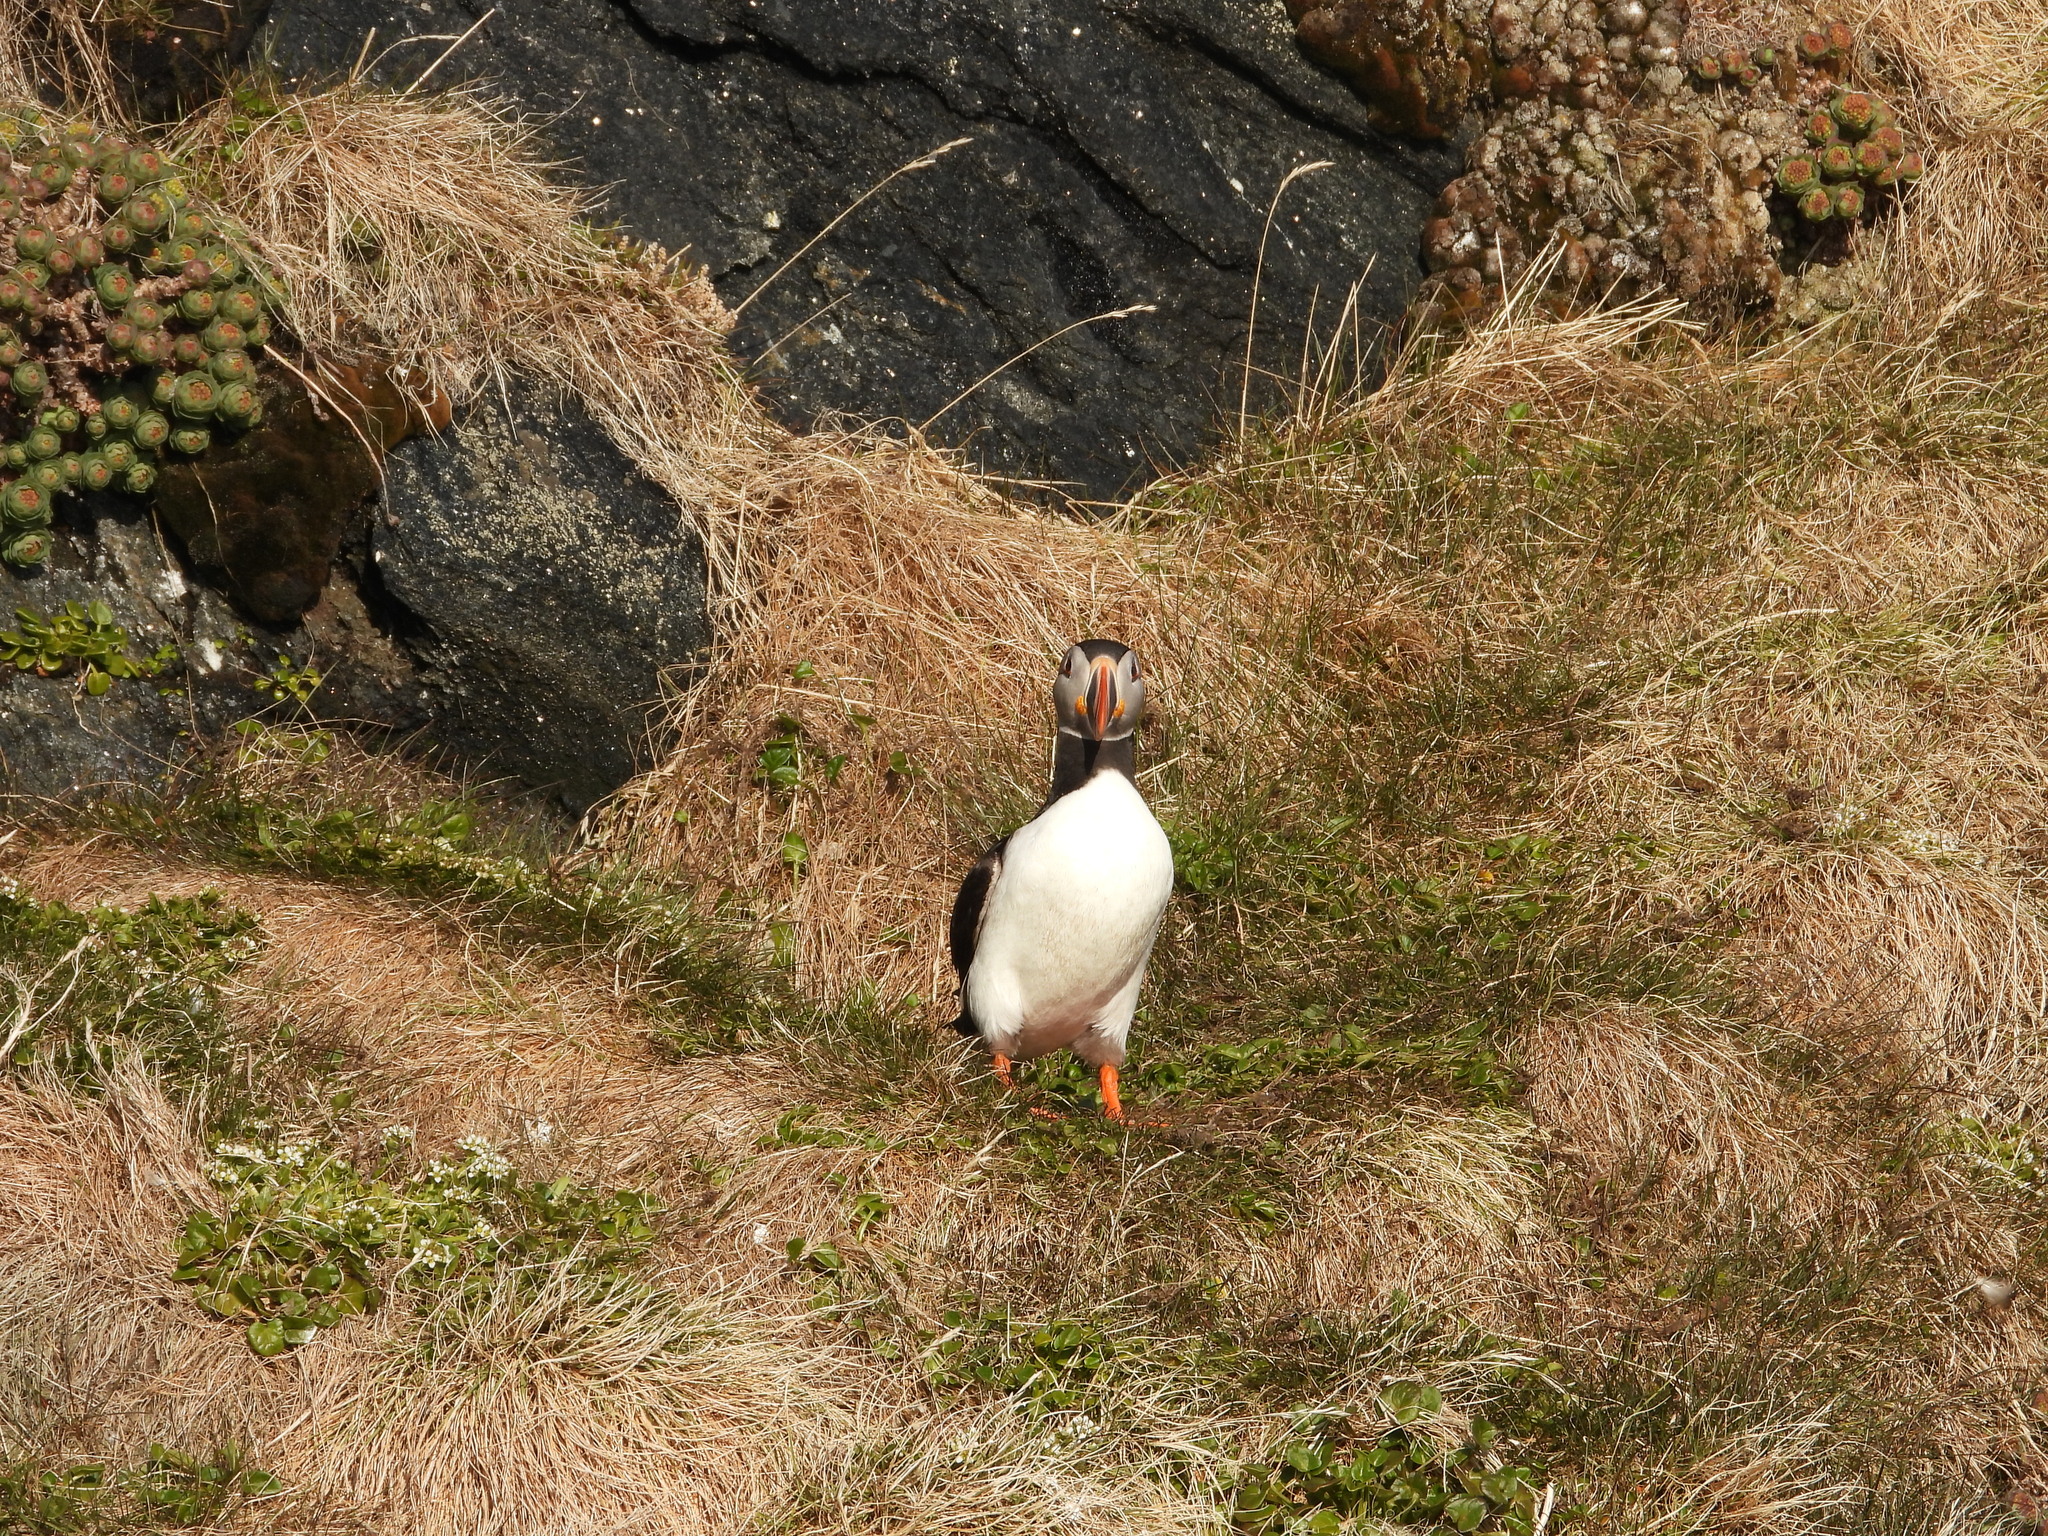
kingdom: Animalia
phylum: Chordata
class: Aves
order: Charadriiformes
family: Alcidae
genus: Fratercula
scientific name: Fratercula arctica
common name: Atlantic puffin
